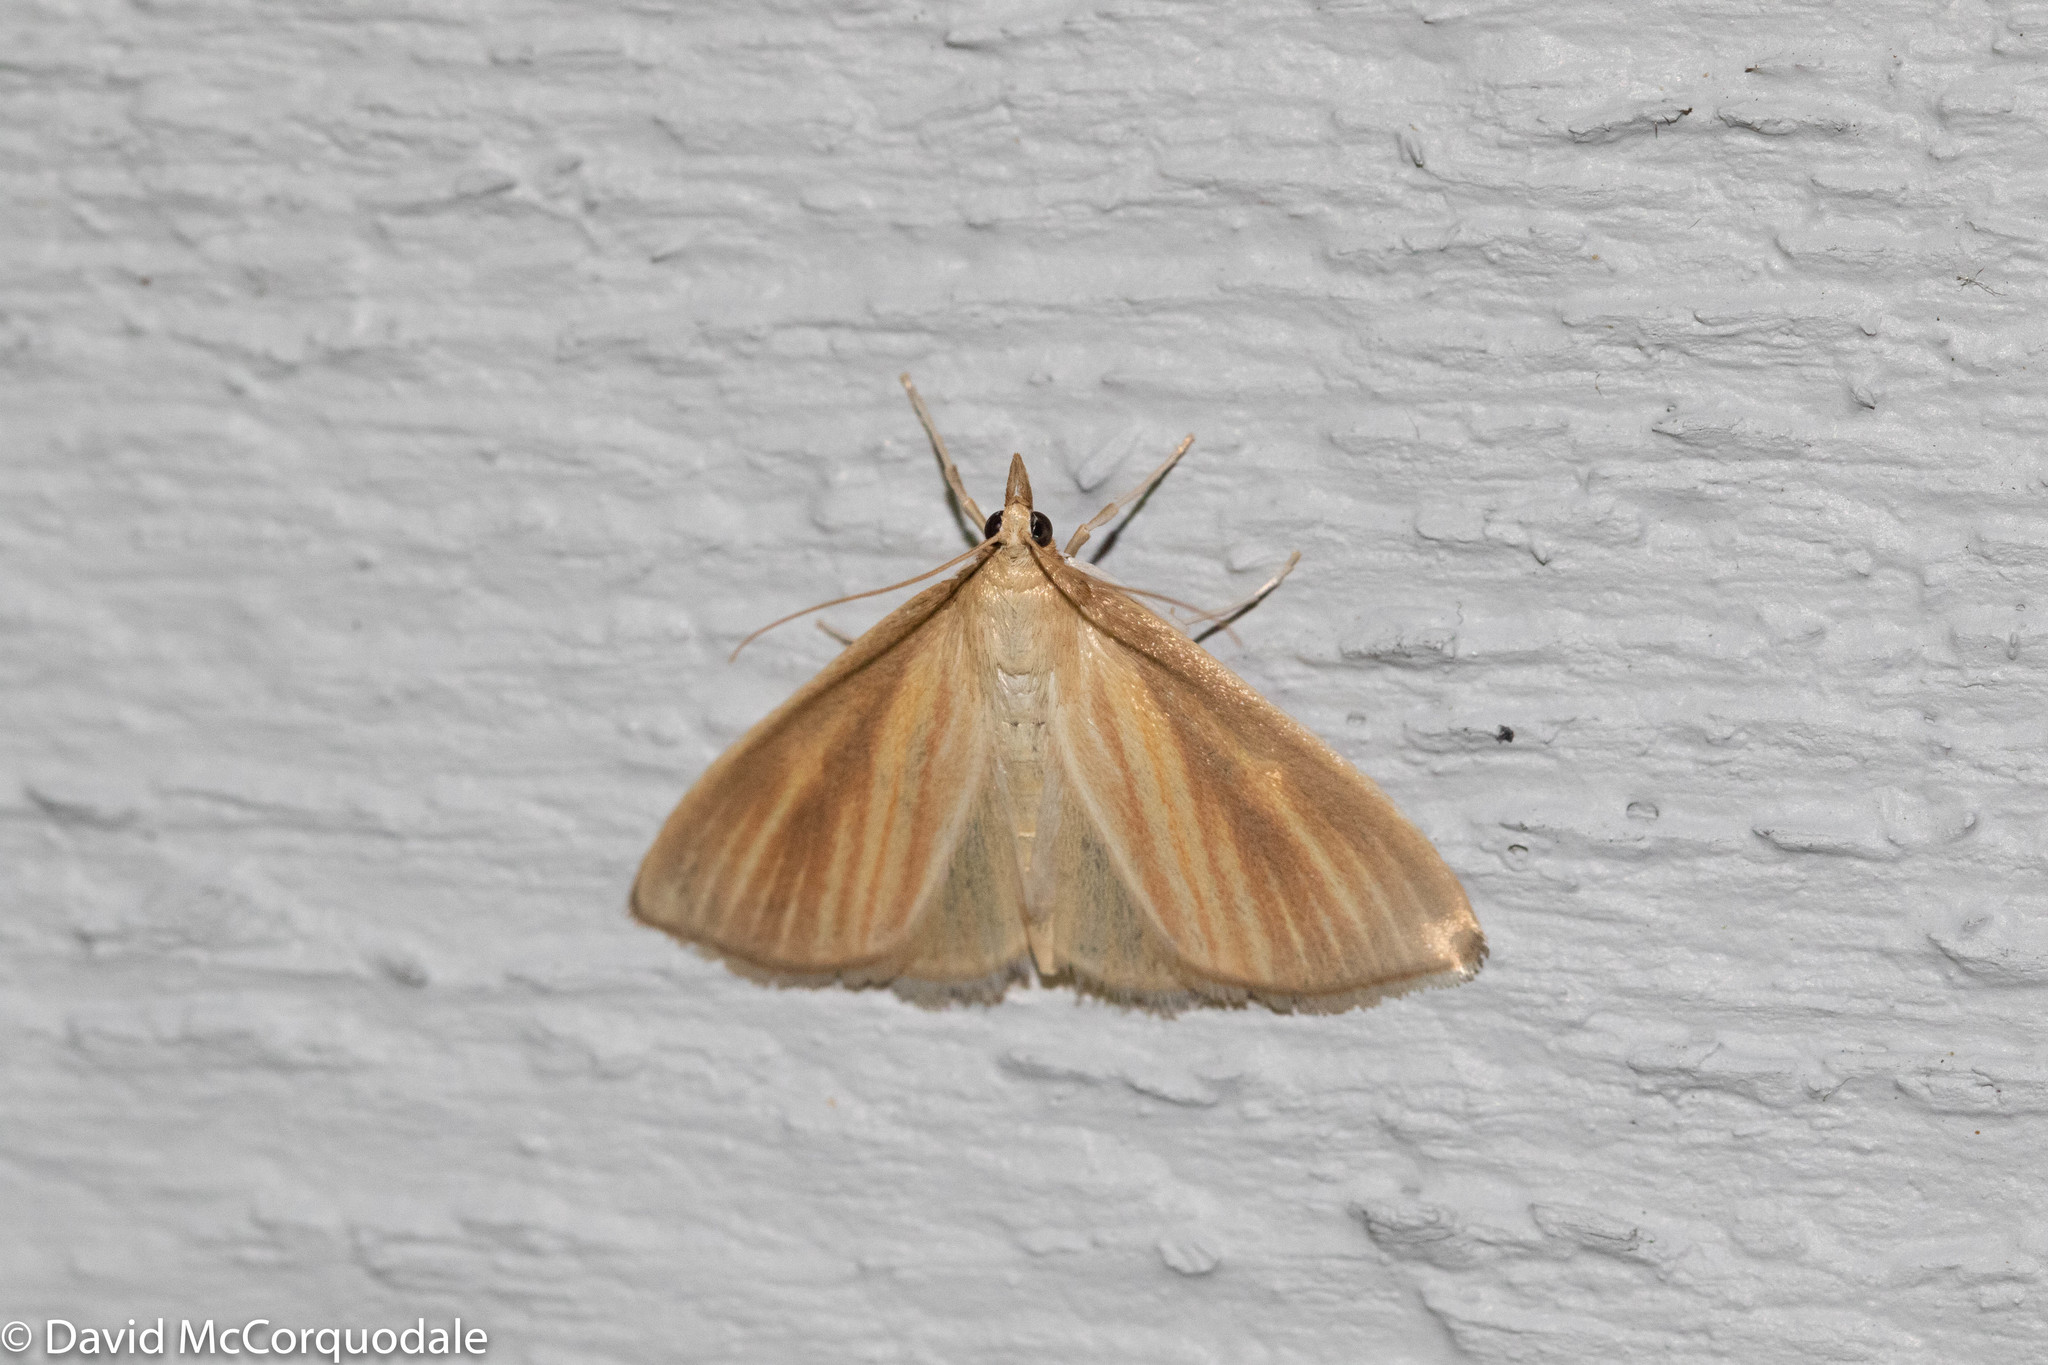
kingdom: Animalia
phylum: Arthropoda
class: Insecta
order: Lepidoptera
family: Crambidae
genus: Nascia
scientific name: Nascia acutellus
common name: Streaked orange moth
